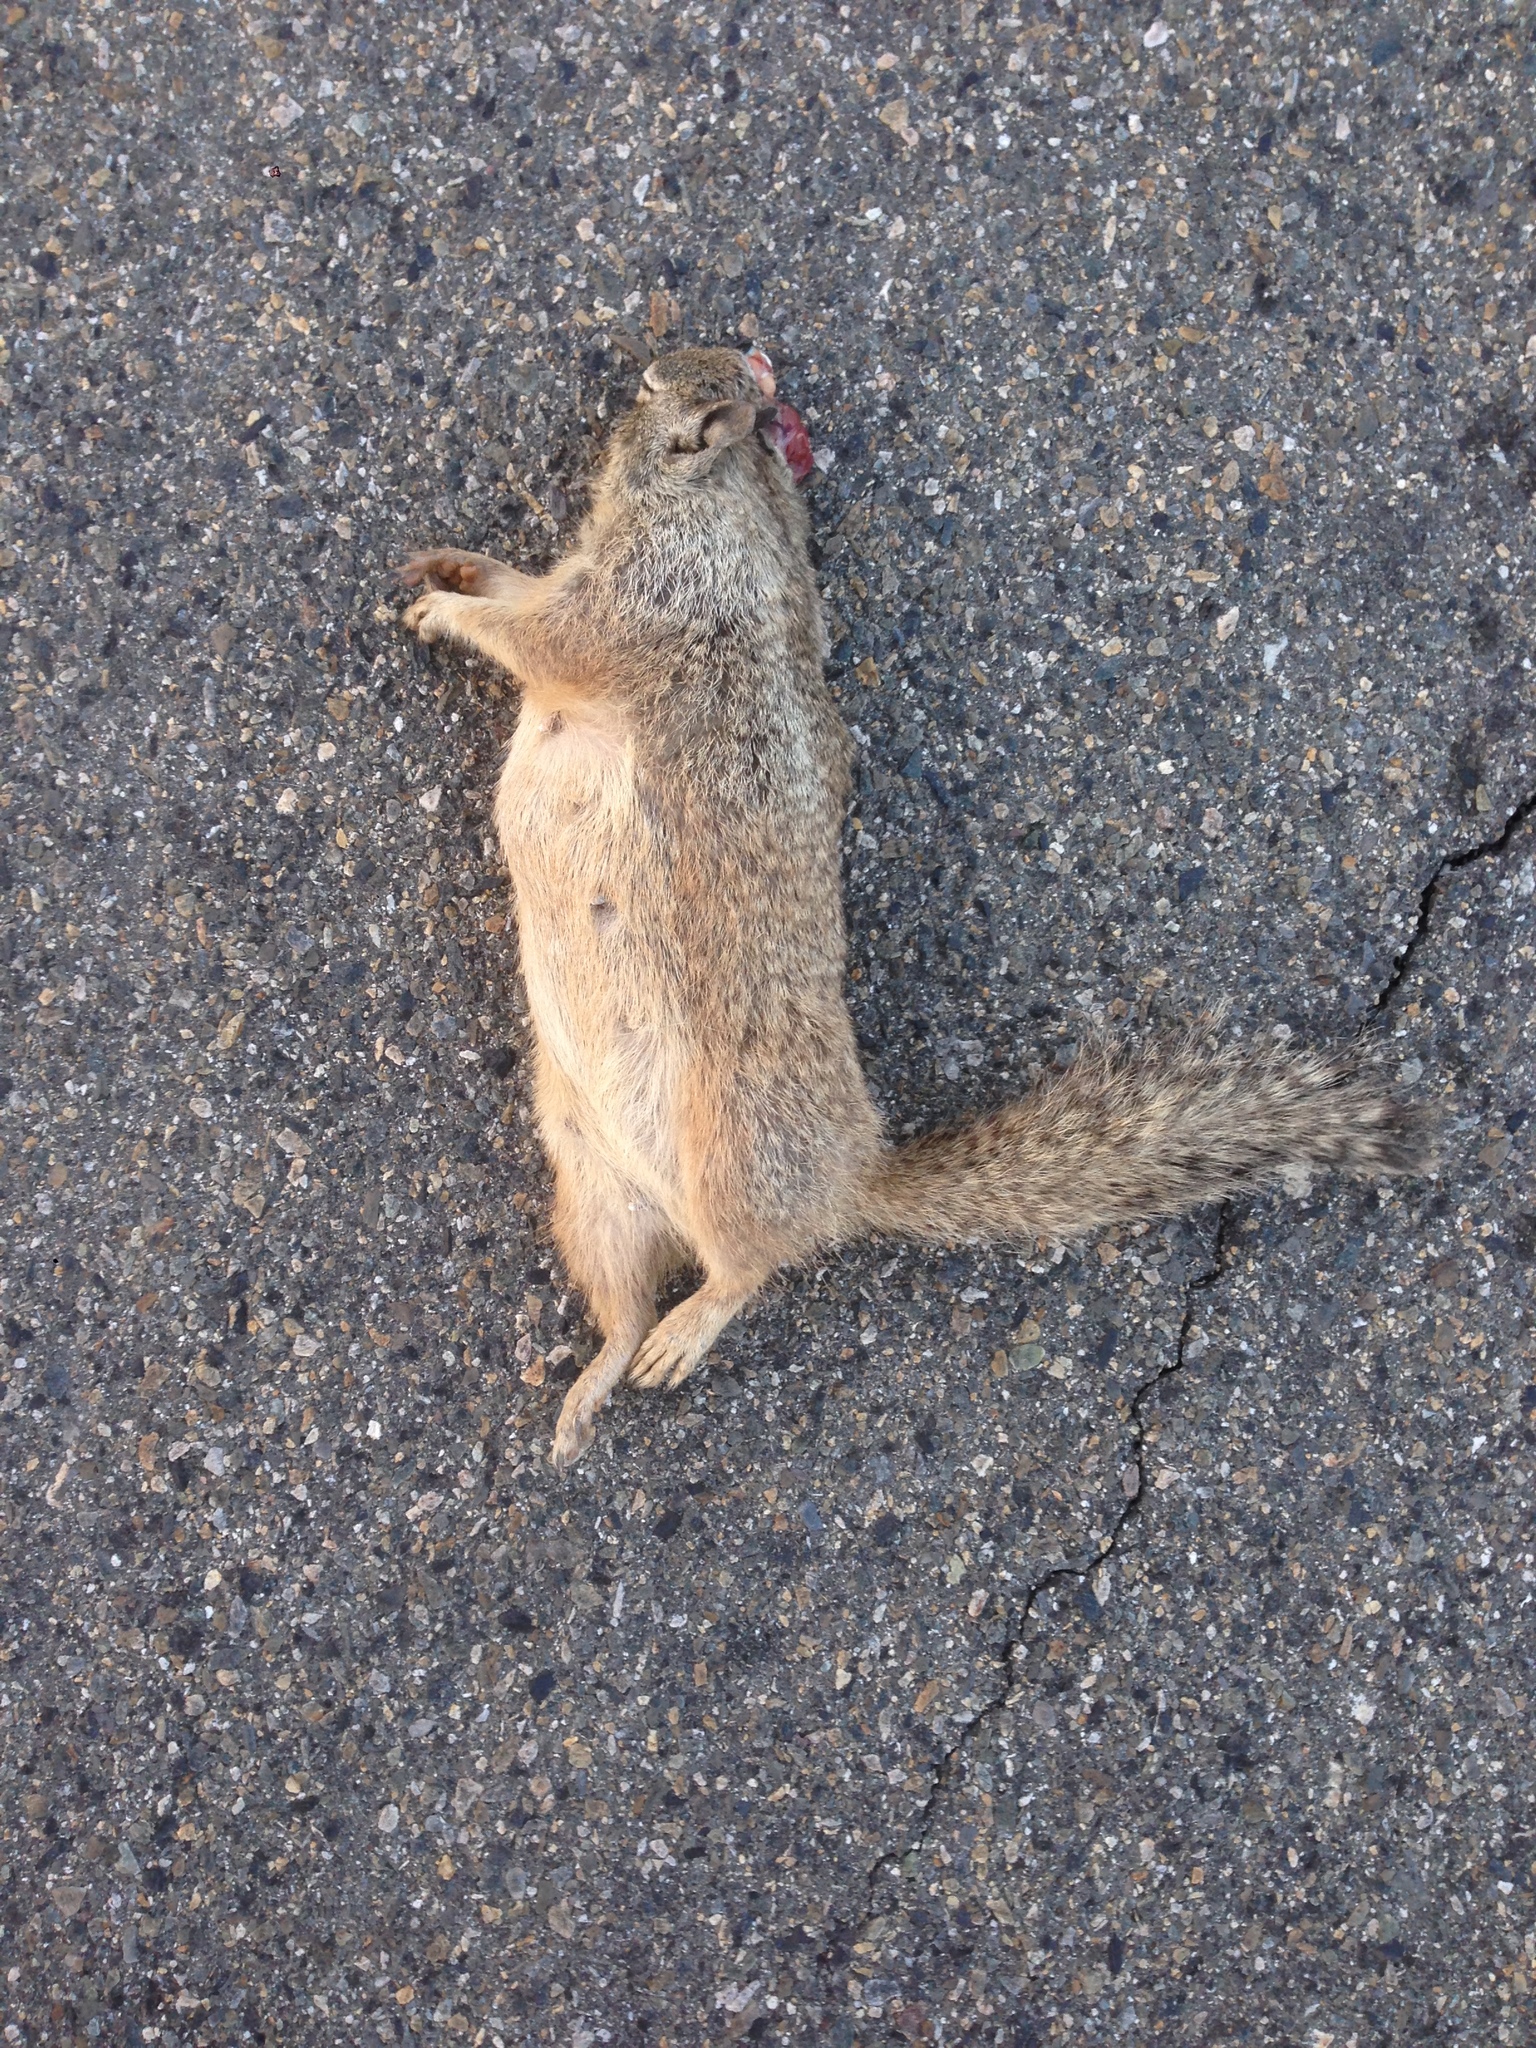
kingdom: Animalia
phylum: Chordata
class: Mammalia
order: Rodentia
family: Sciuridae
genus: Otospermophilus
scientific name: Otospermophilus beecheyi
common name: California ground squirrel
